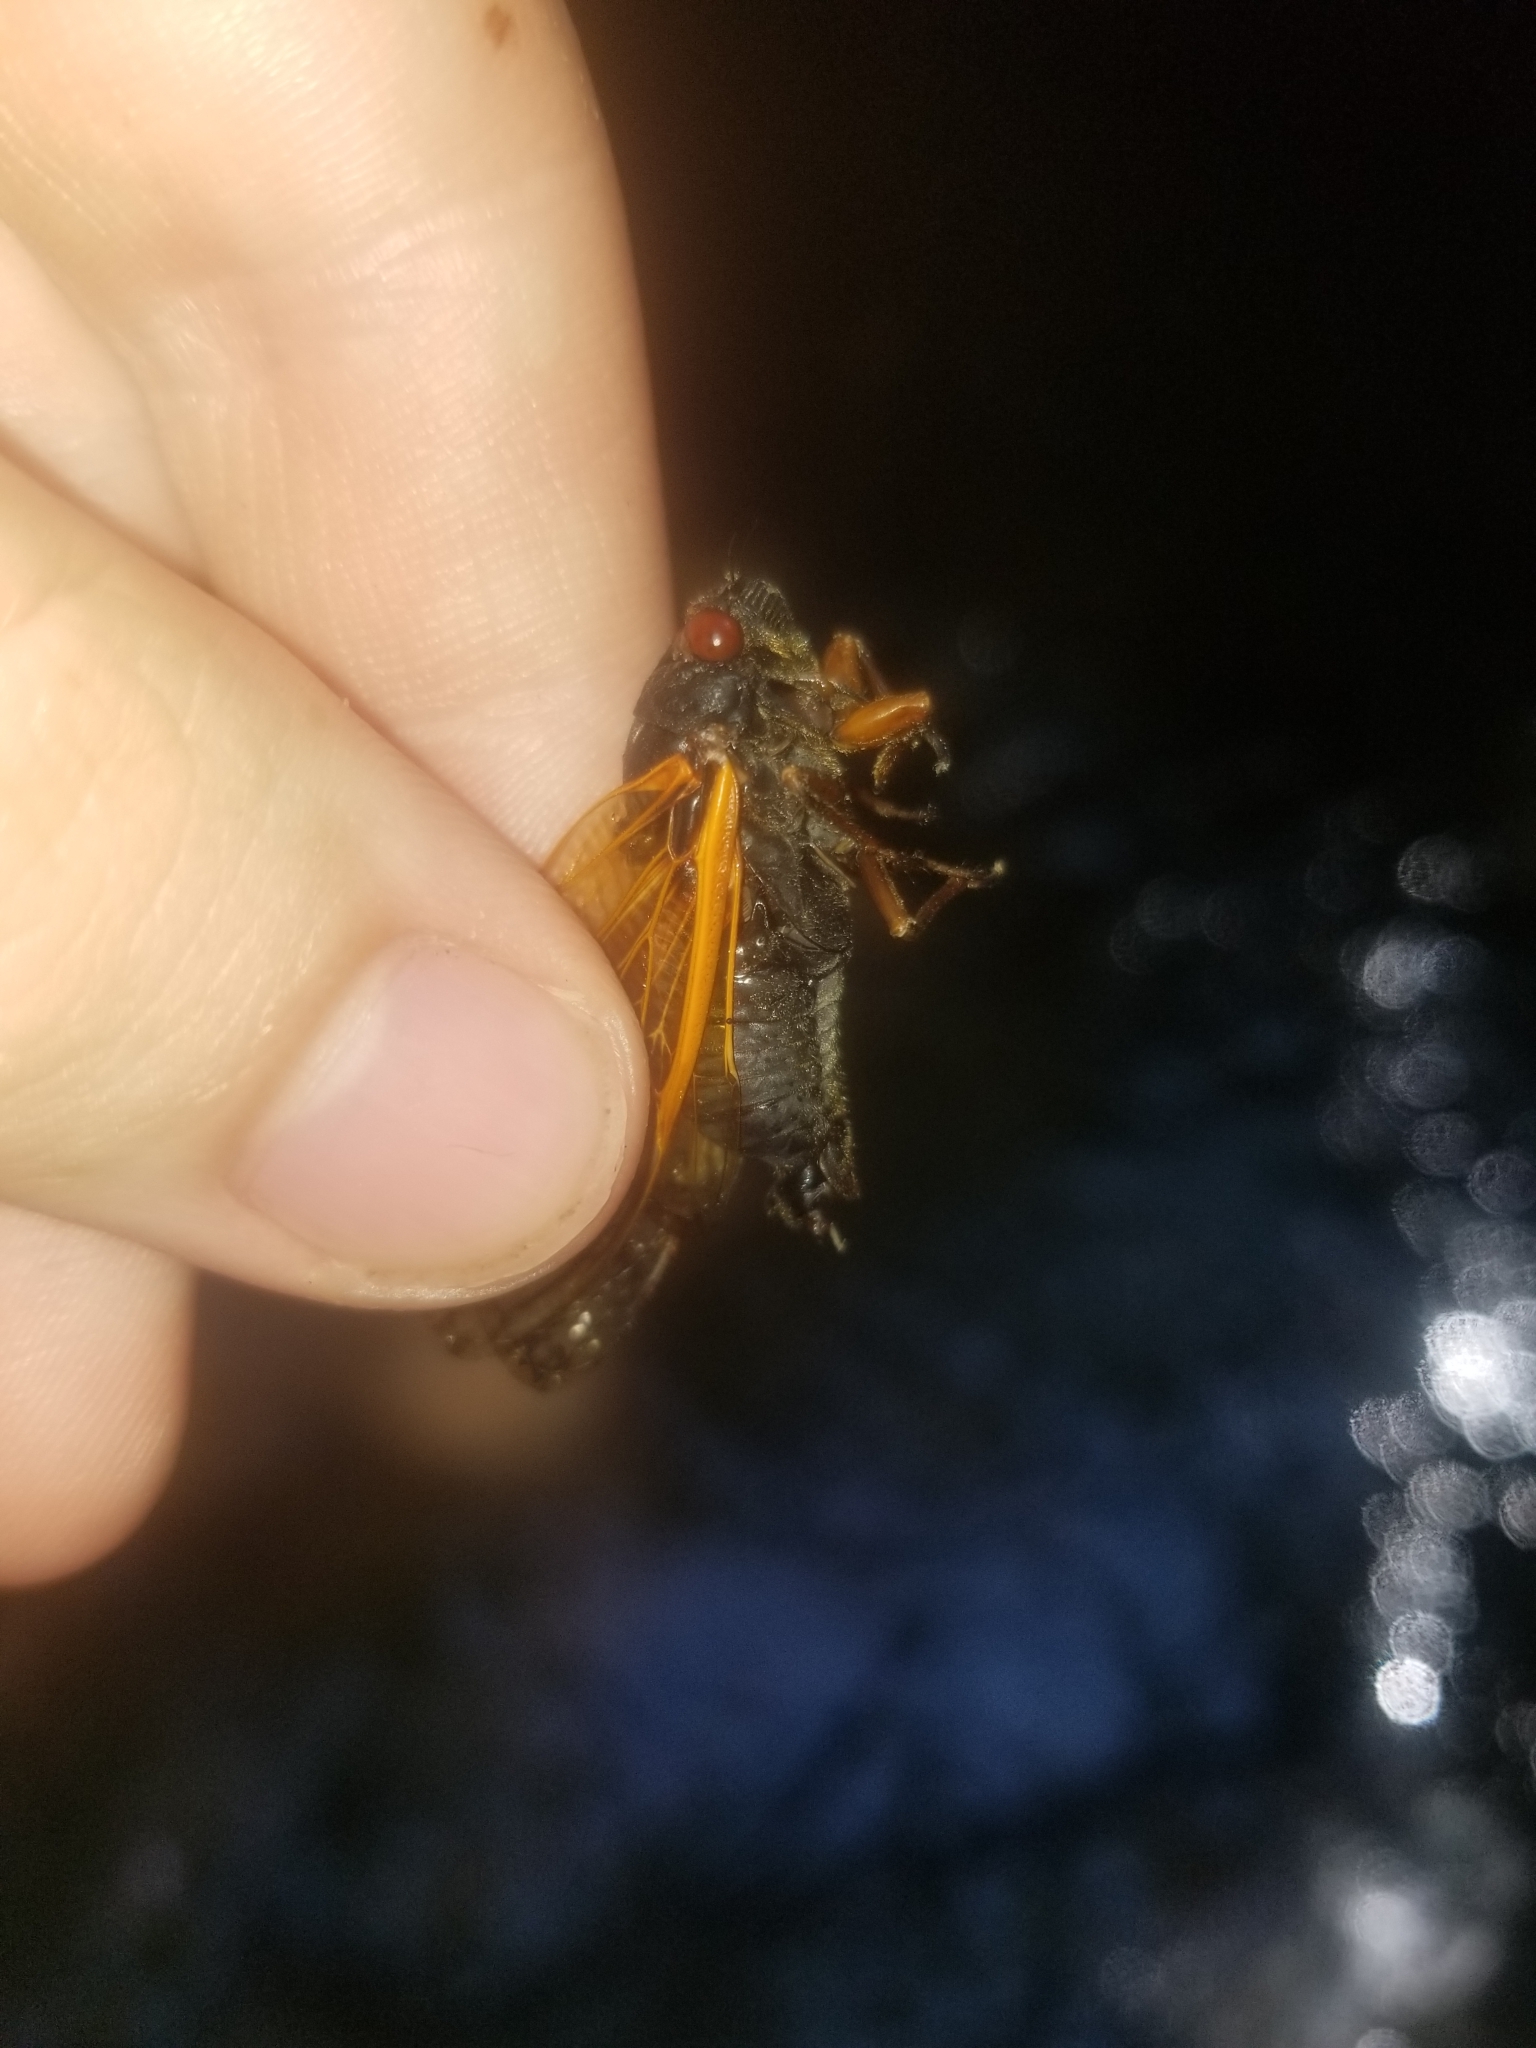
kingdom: Animalia
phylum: Arthropoda
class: Insecta
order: Hemiptera
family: Cicadidae
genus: Magicicada
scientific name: Magicicada cassini
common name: Cassin's 17-year cicada
